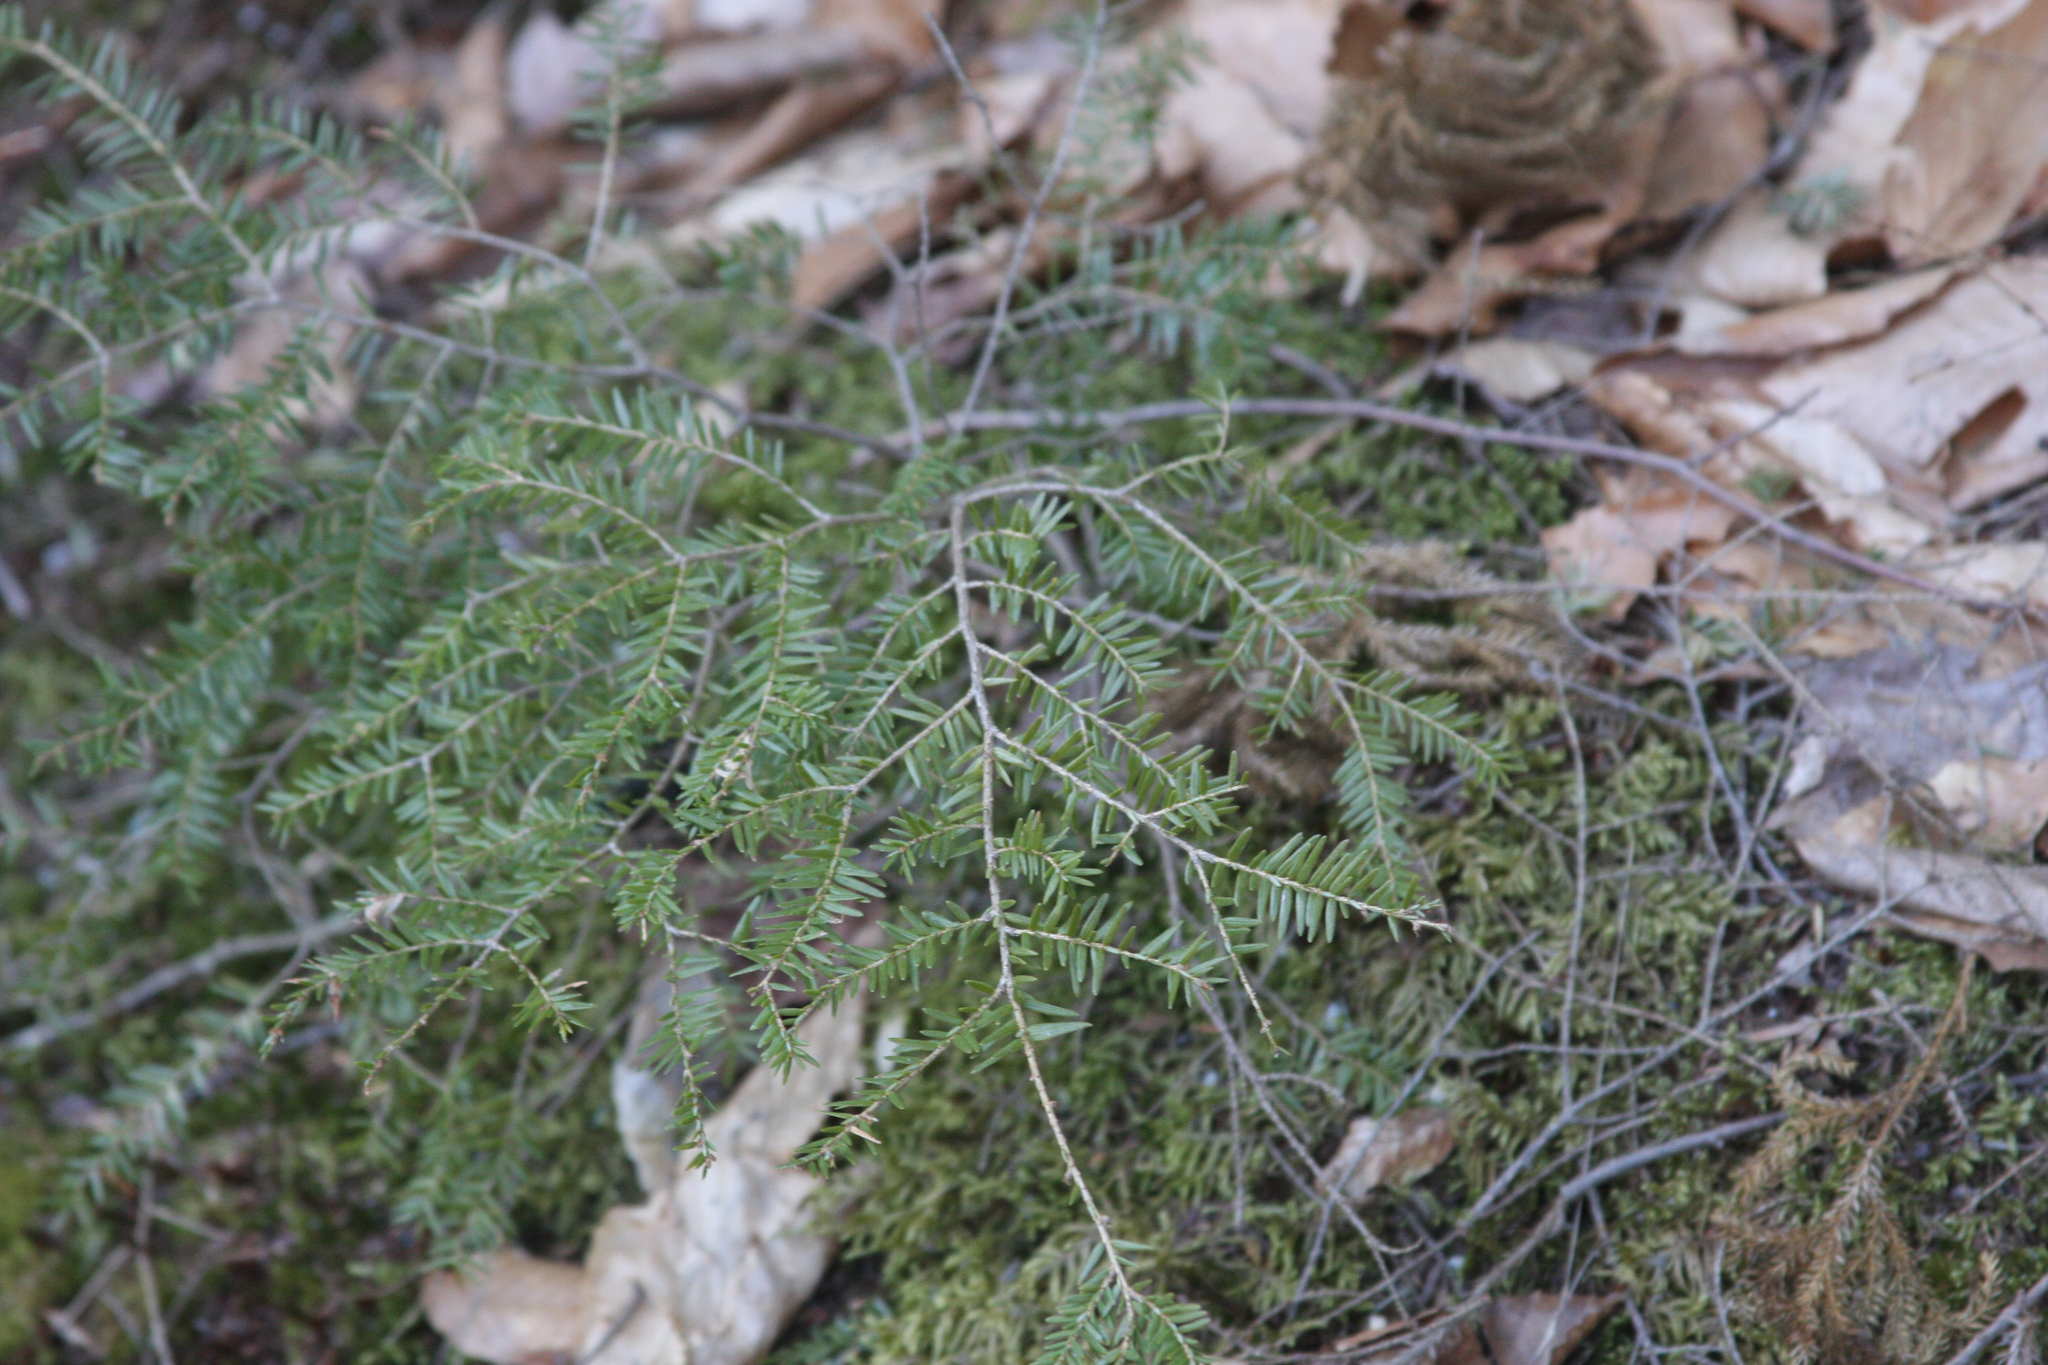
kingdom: Plantae
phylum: Tracheophyta
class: Pinopsida
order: Pinales
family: Pinaceae
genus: Tsuga
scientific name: Tsuga canadensis
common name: Eastern hemlock
